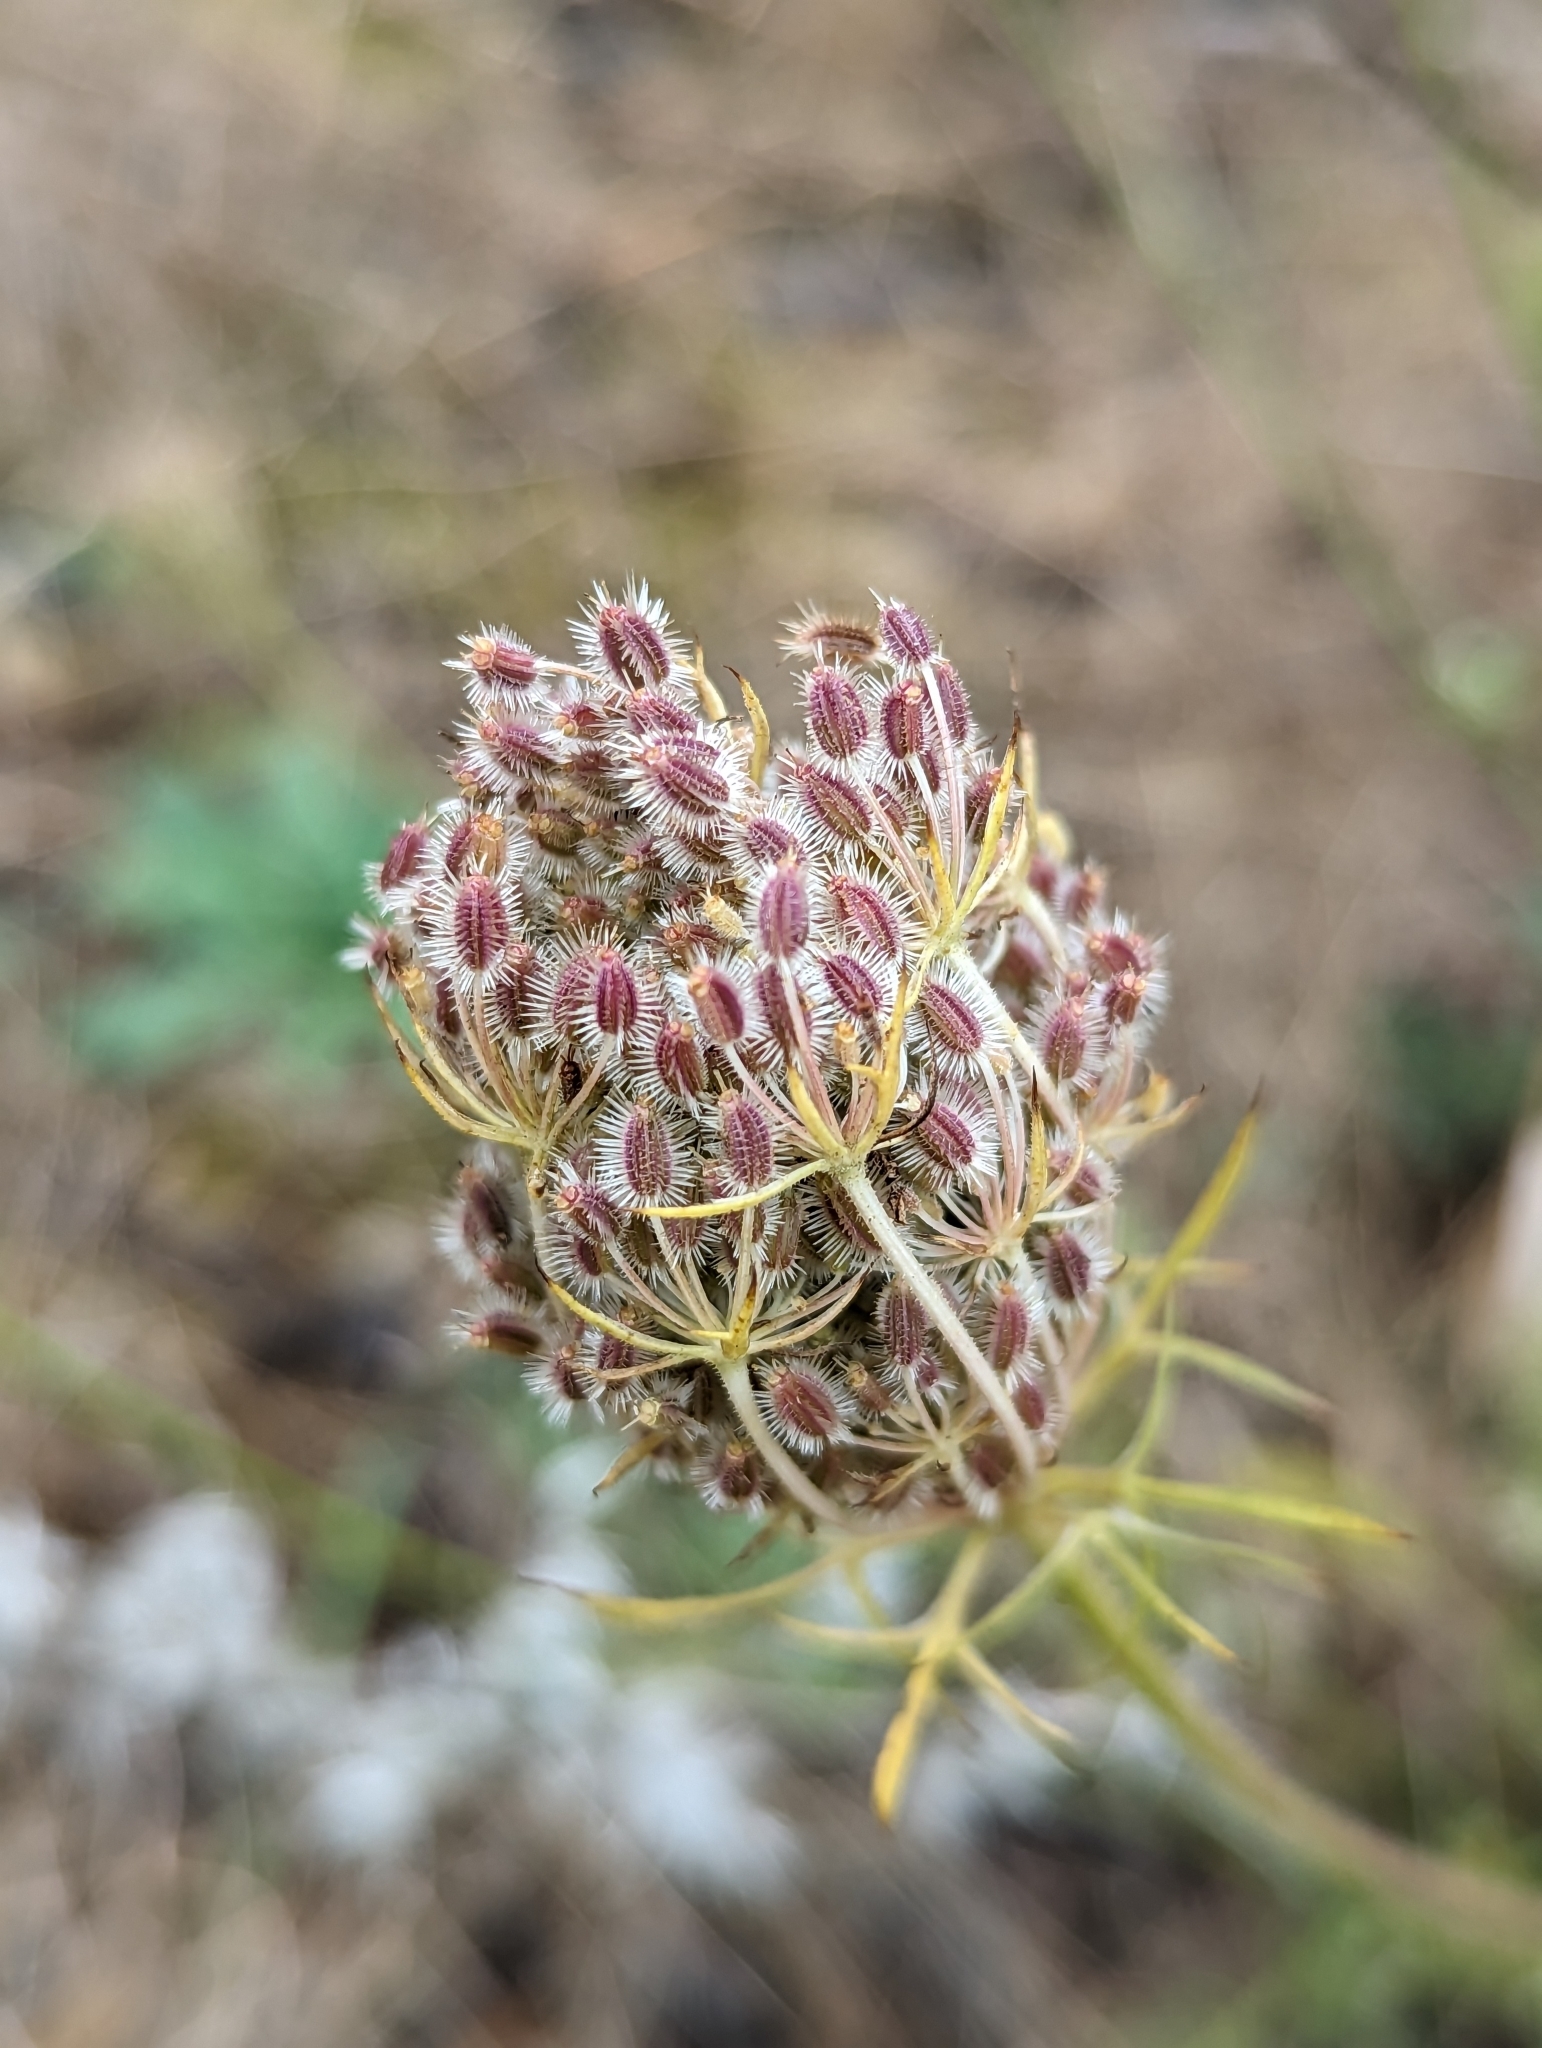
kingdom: Plantae
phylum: Tracheophyta
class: Magnoliopsida
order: Apiales
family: Apiaceae
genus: Daucus
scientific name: Daucus carota
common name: Wild carrot
